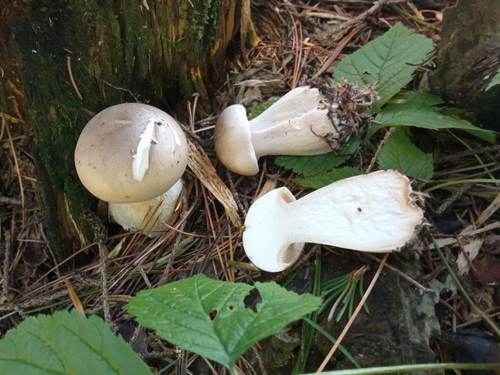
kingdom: Fungi
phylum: Basidiomycota
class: Agaricomycetes
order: Agaricales
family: Tricholomataceae
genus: Clitocybe
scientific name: Clitocybe nebularis
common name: Clouded agaric
